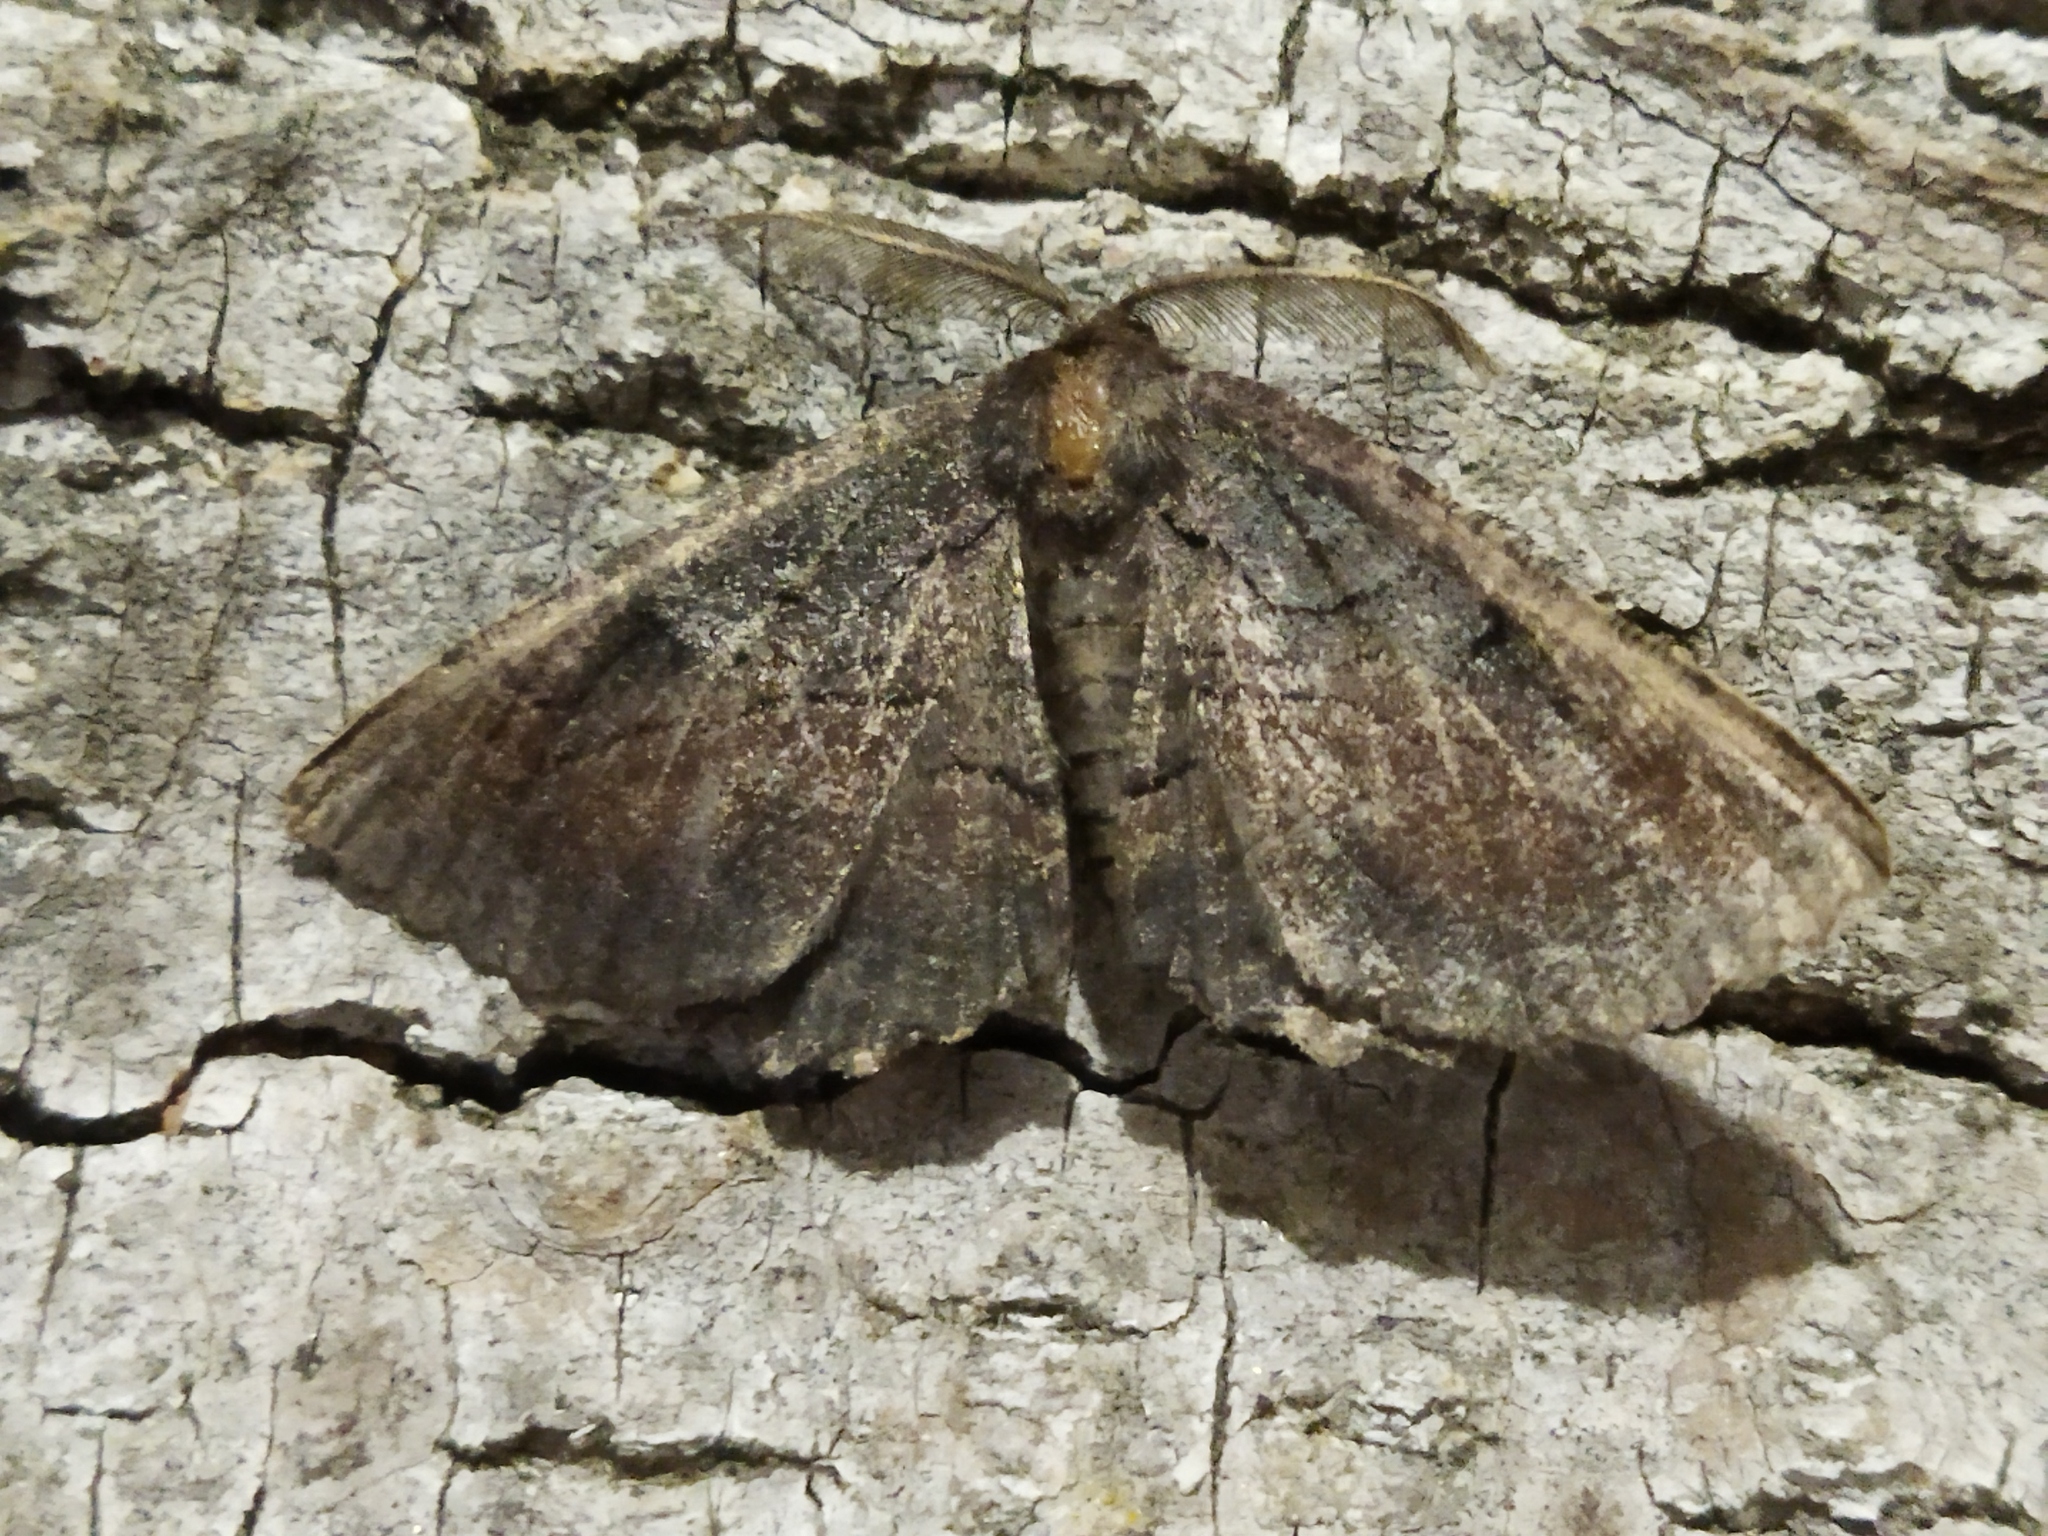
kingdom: Animalia
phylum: Arthropoda
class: Insecta
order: Lepidoptera
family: Geometridae
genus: Nychiodes
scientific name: Nychiodes waltheri
